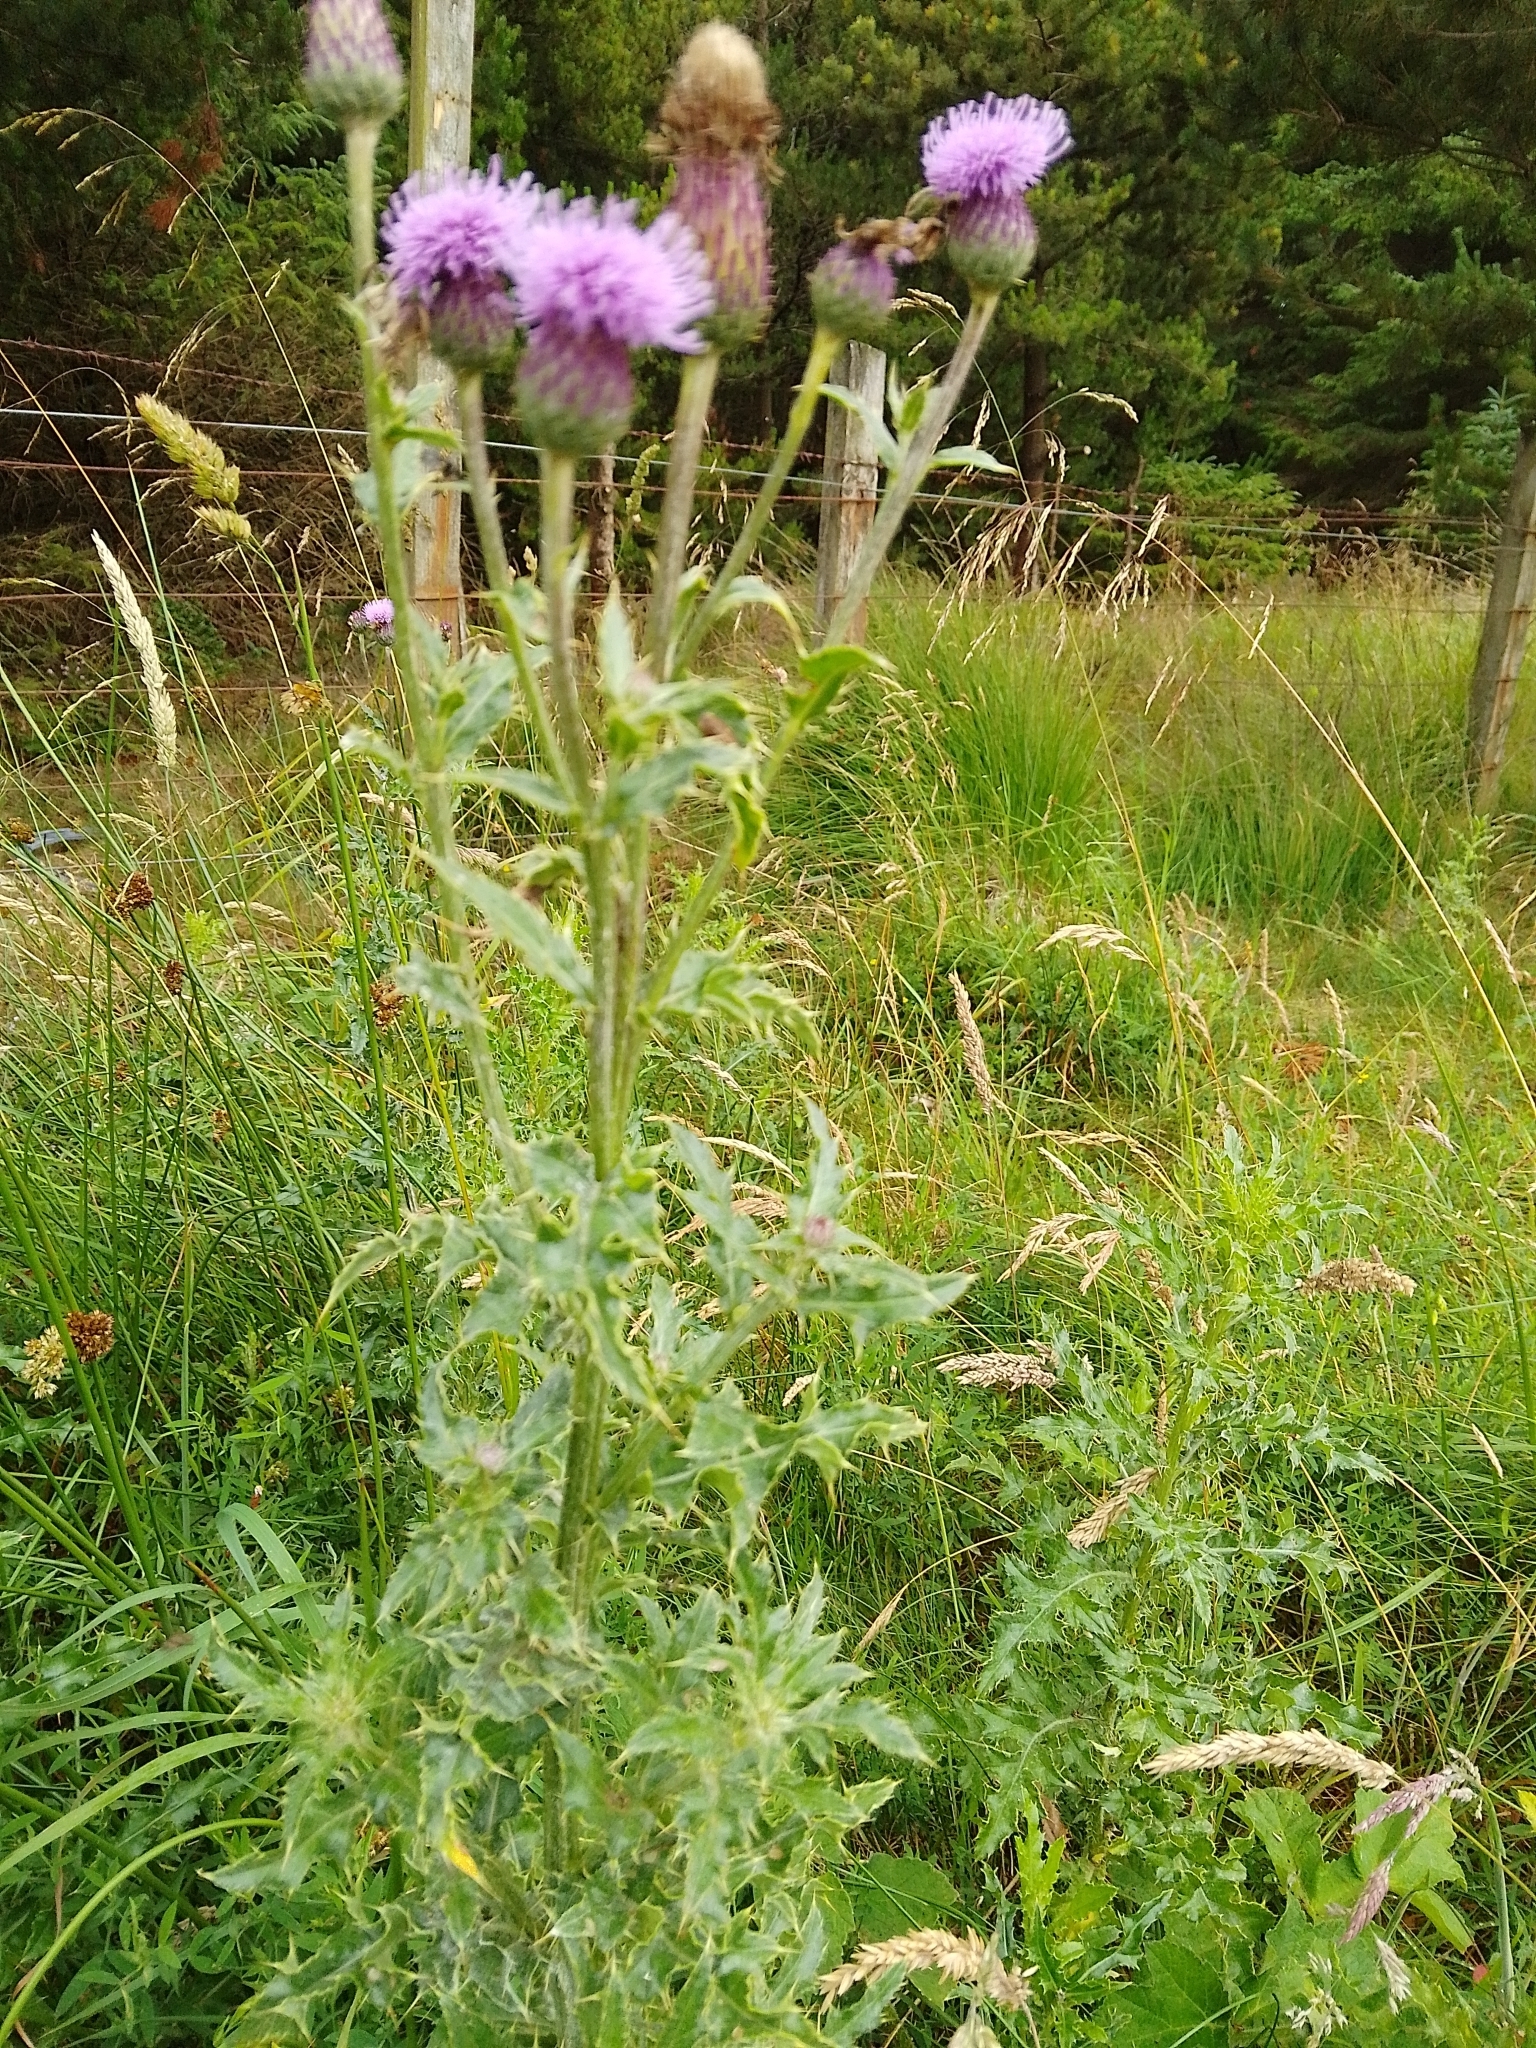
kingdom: Plantae
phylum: Tracheophyta
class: Magnoliopsida
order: Asterales
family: Asteraceae
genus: Cirsium
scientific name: Cirsium arvense
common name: Creeping thistle
